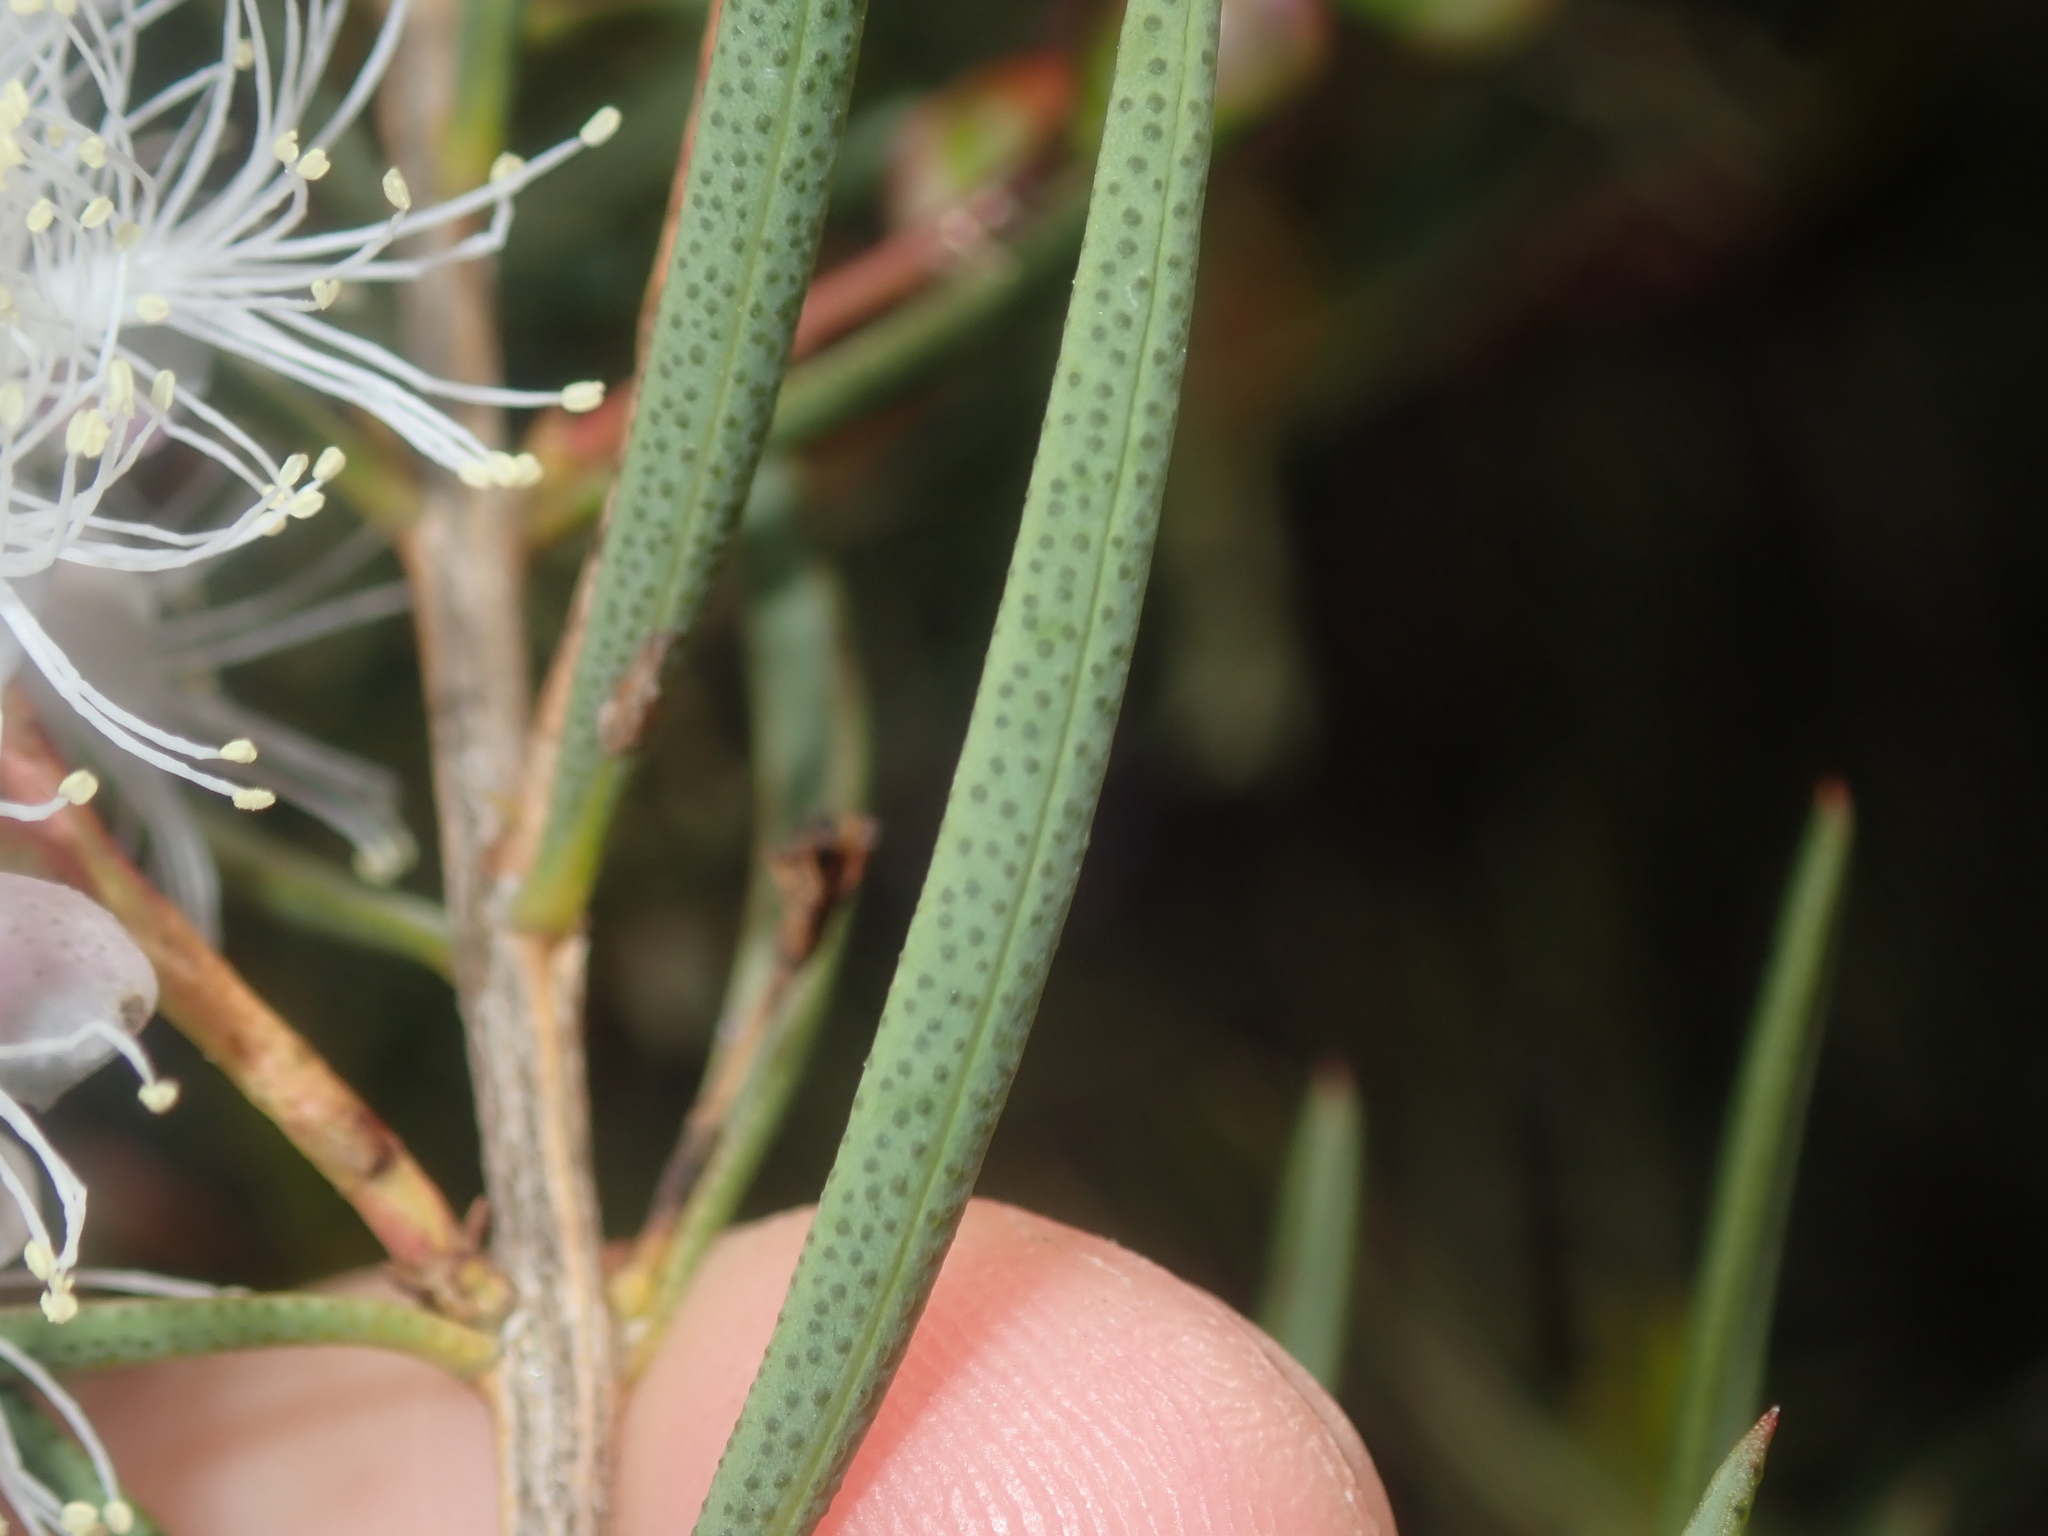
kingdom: Plantae
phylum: Tracheophyta
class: Magnoliopsida
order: Myrtales
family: Myrtaceae
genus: Melaleuca
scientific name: Melaleuca radula
